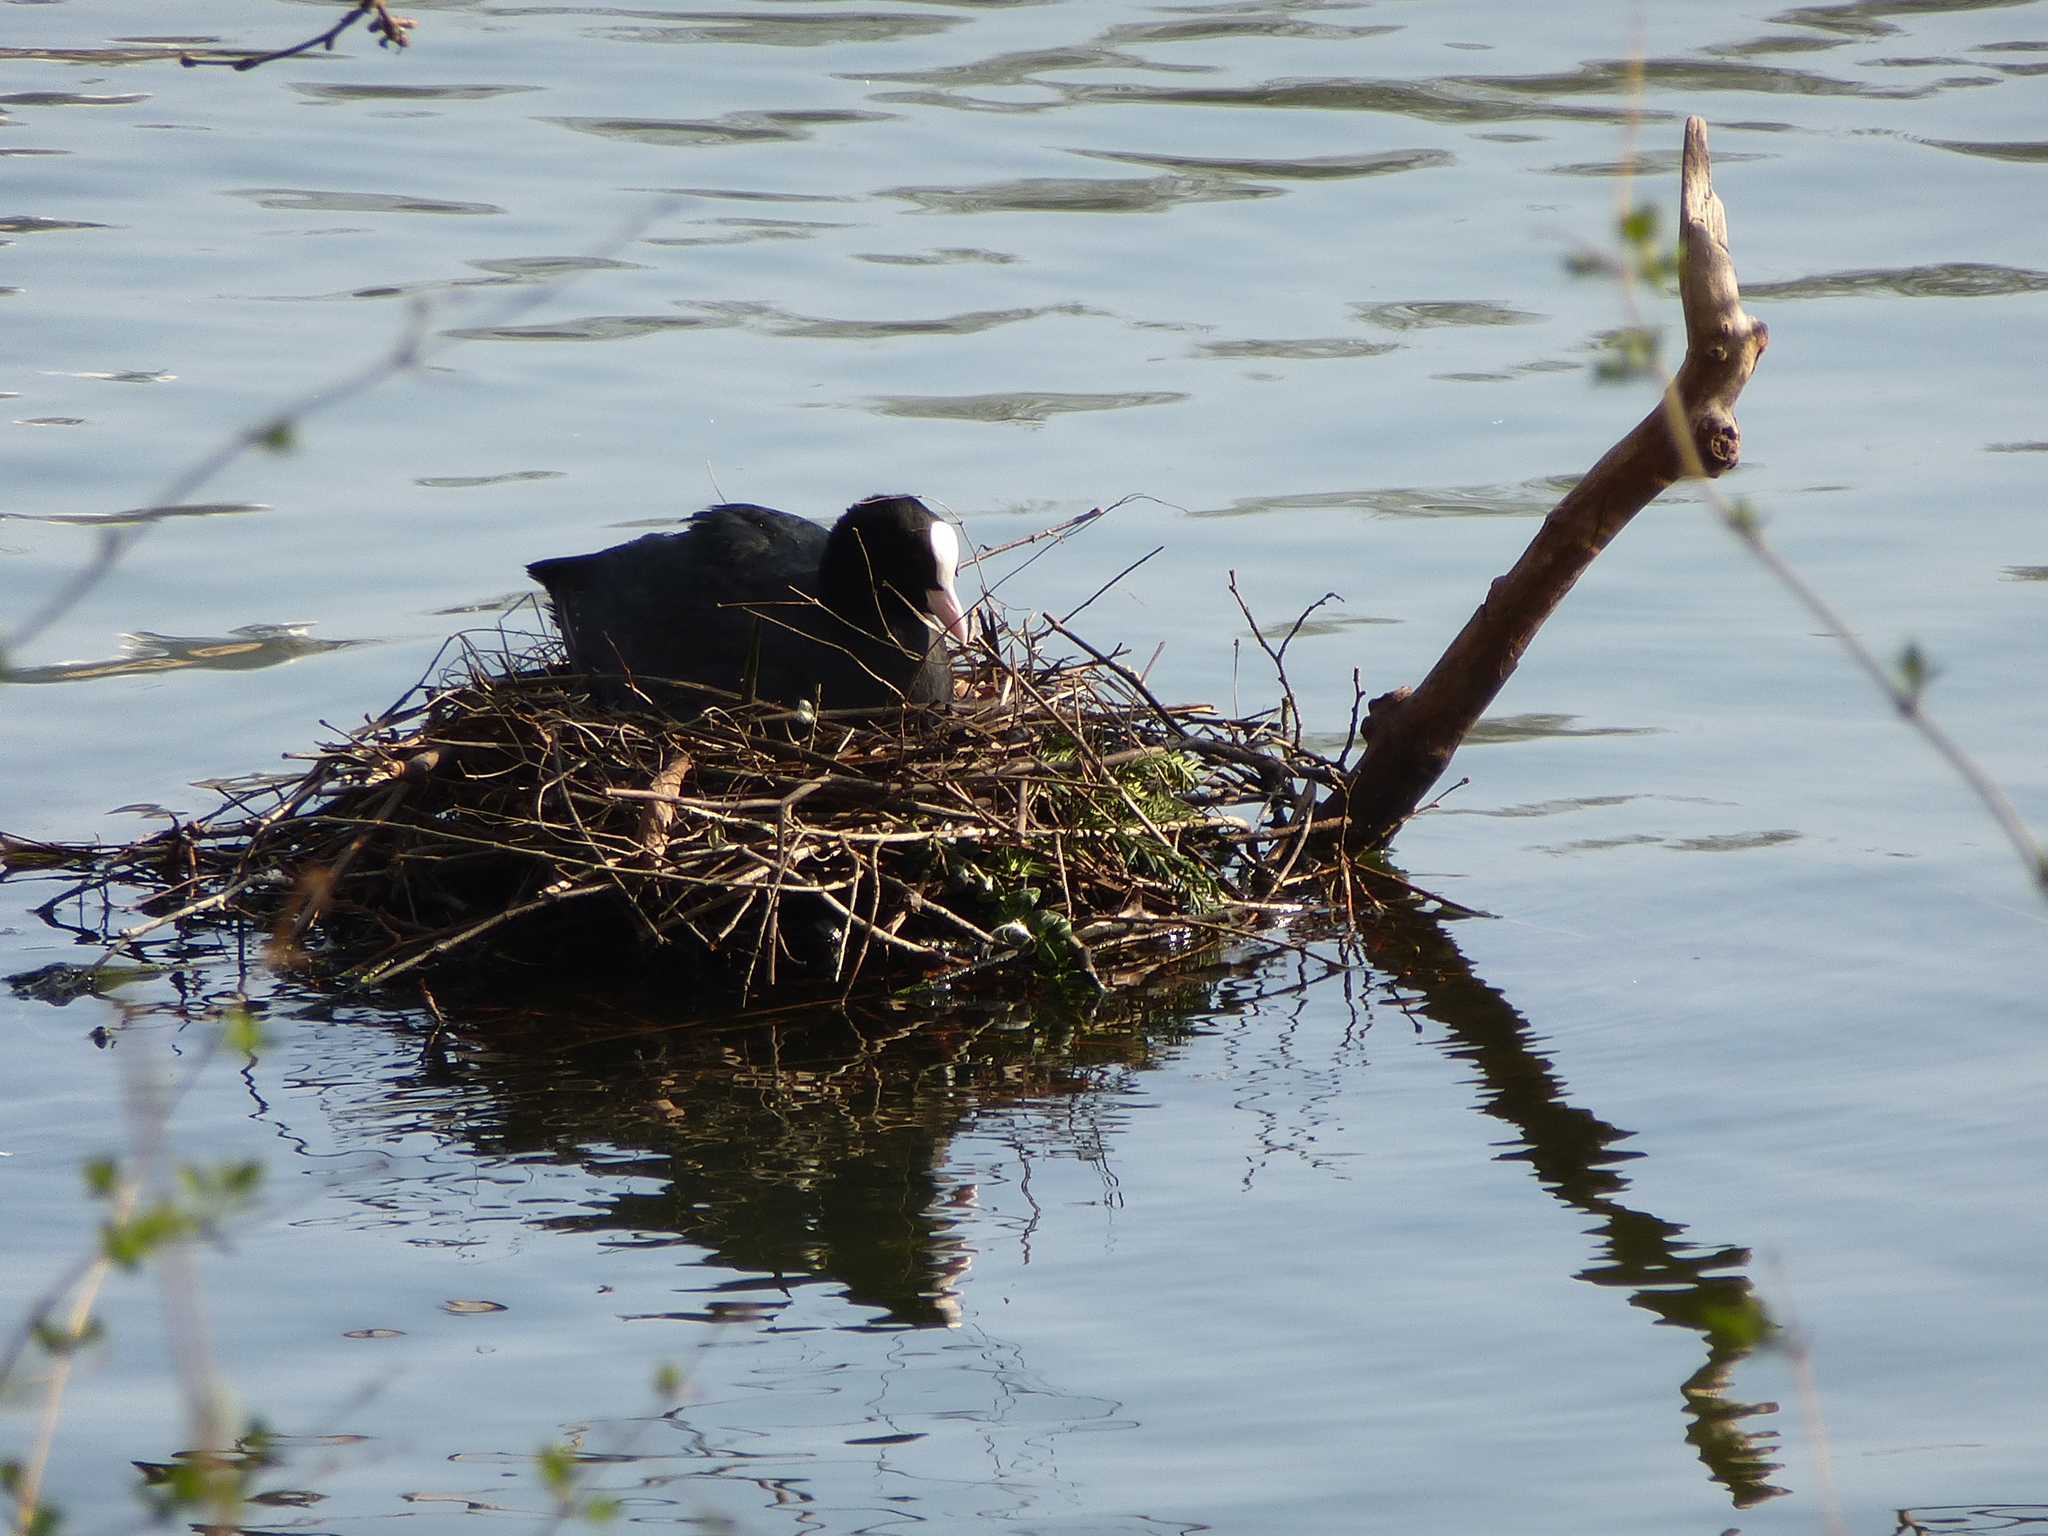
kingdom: Animalia
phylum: Chordata
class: Aves
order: Gruiformes
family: Rallidae
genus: Fulica
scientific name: Fulica atra
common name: Eurasian coot
